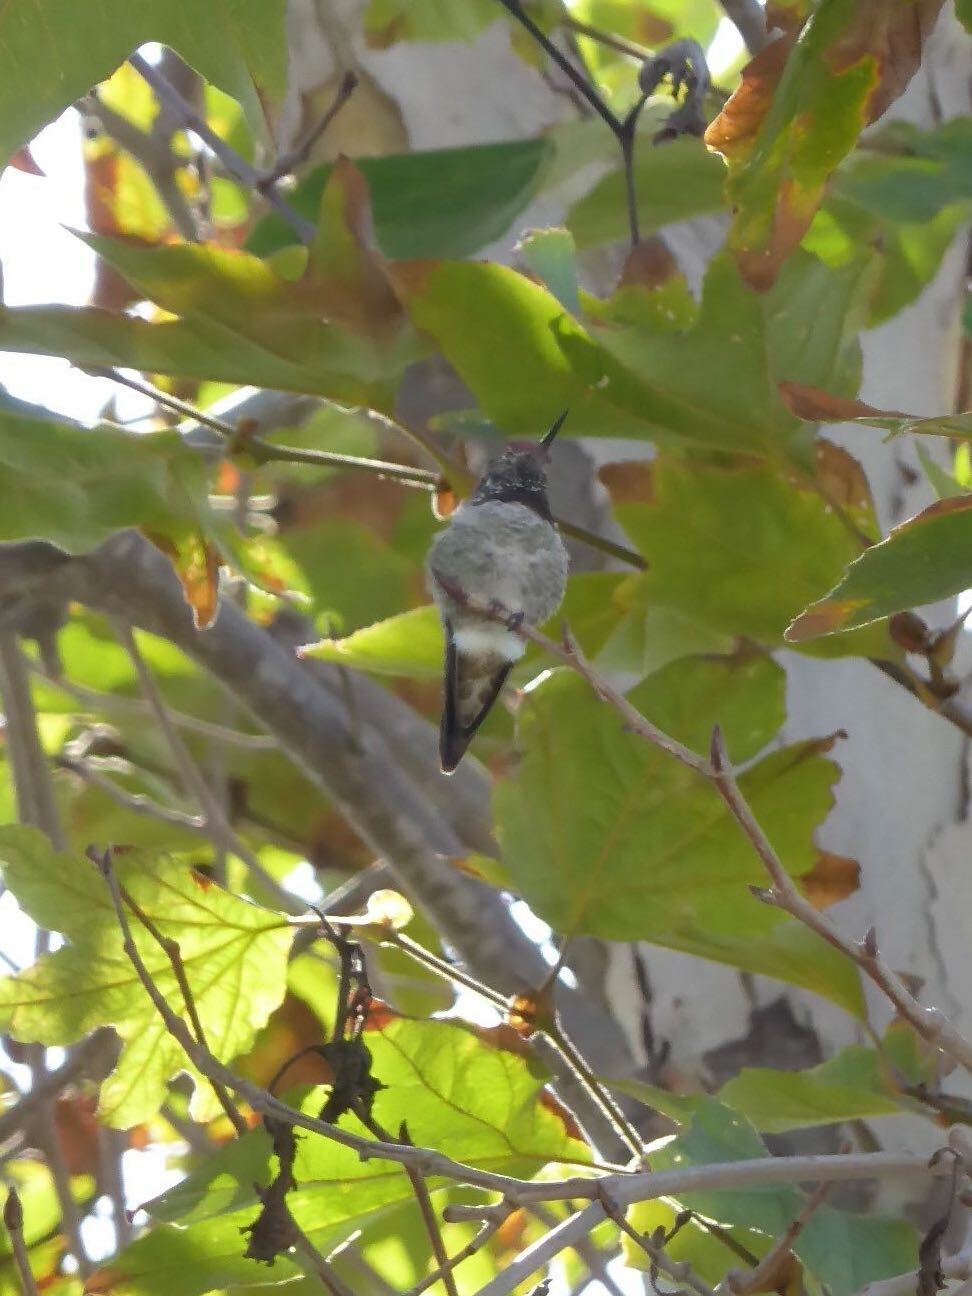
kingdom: Animalia
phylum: Chordata
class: Aves
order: Apodiformes
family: Trochilidae
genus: Calypte
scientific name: Calypte anna
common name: Anna's hummingbird
